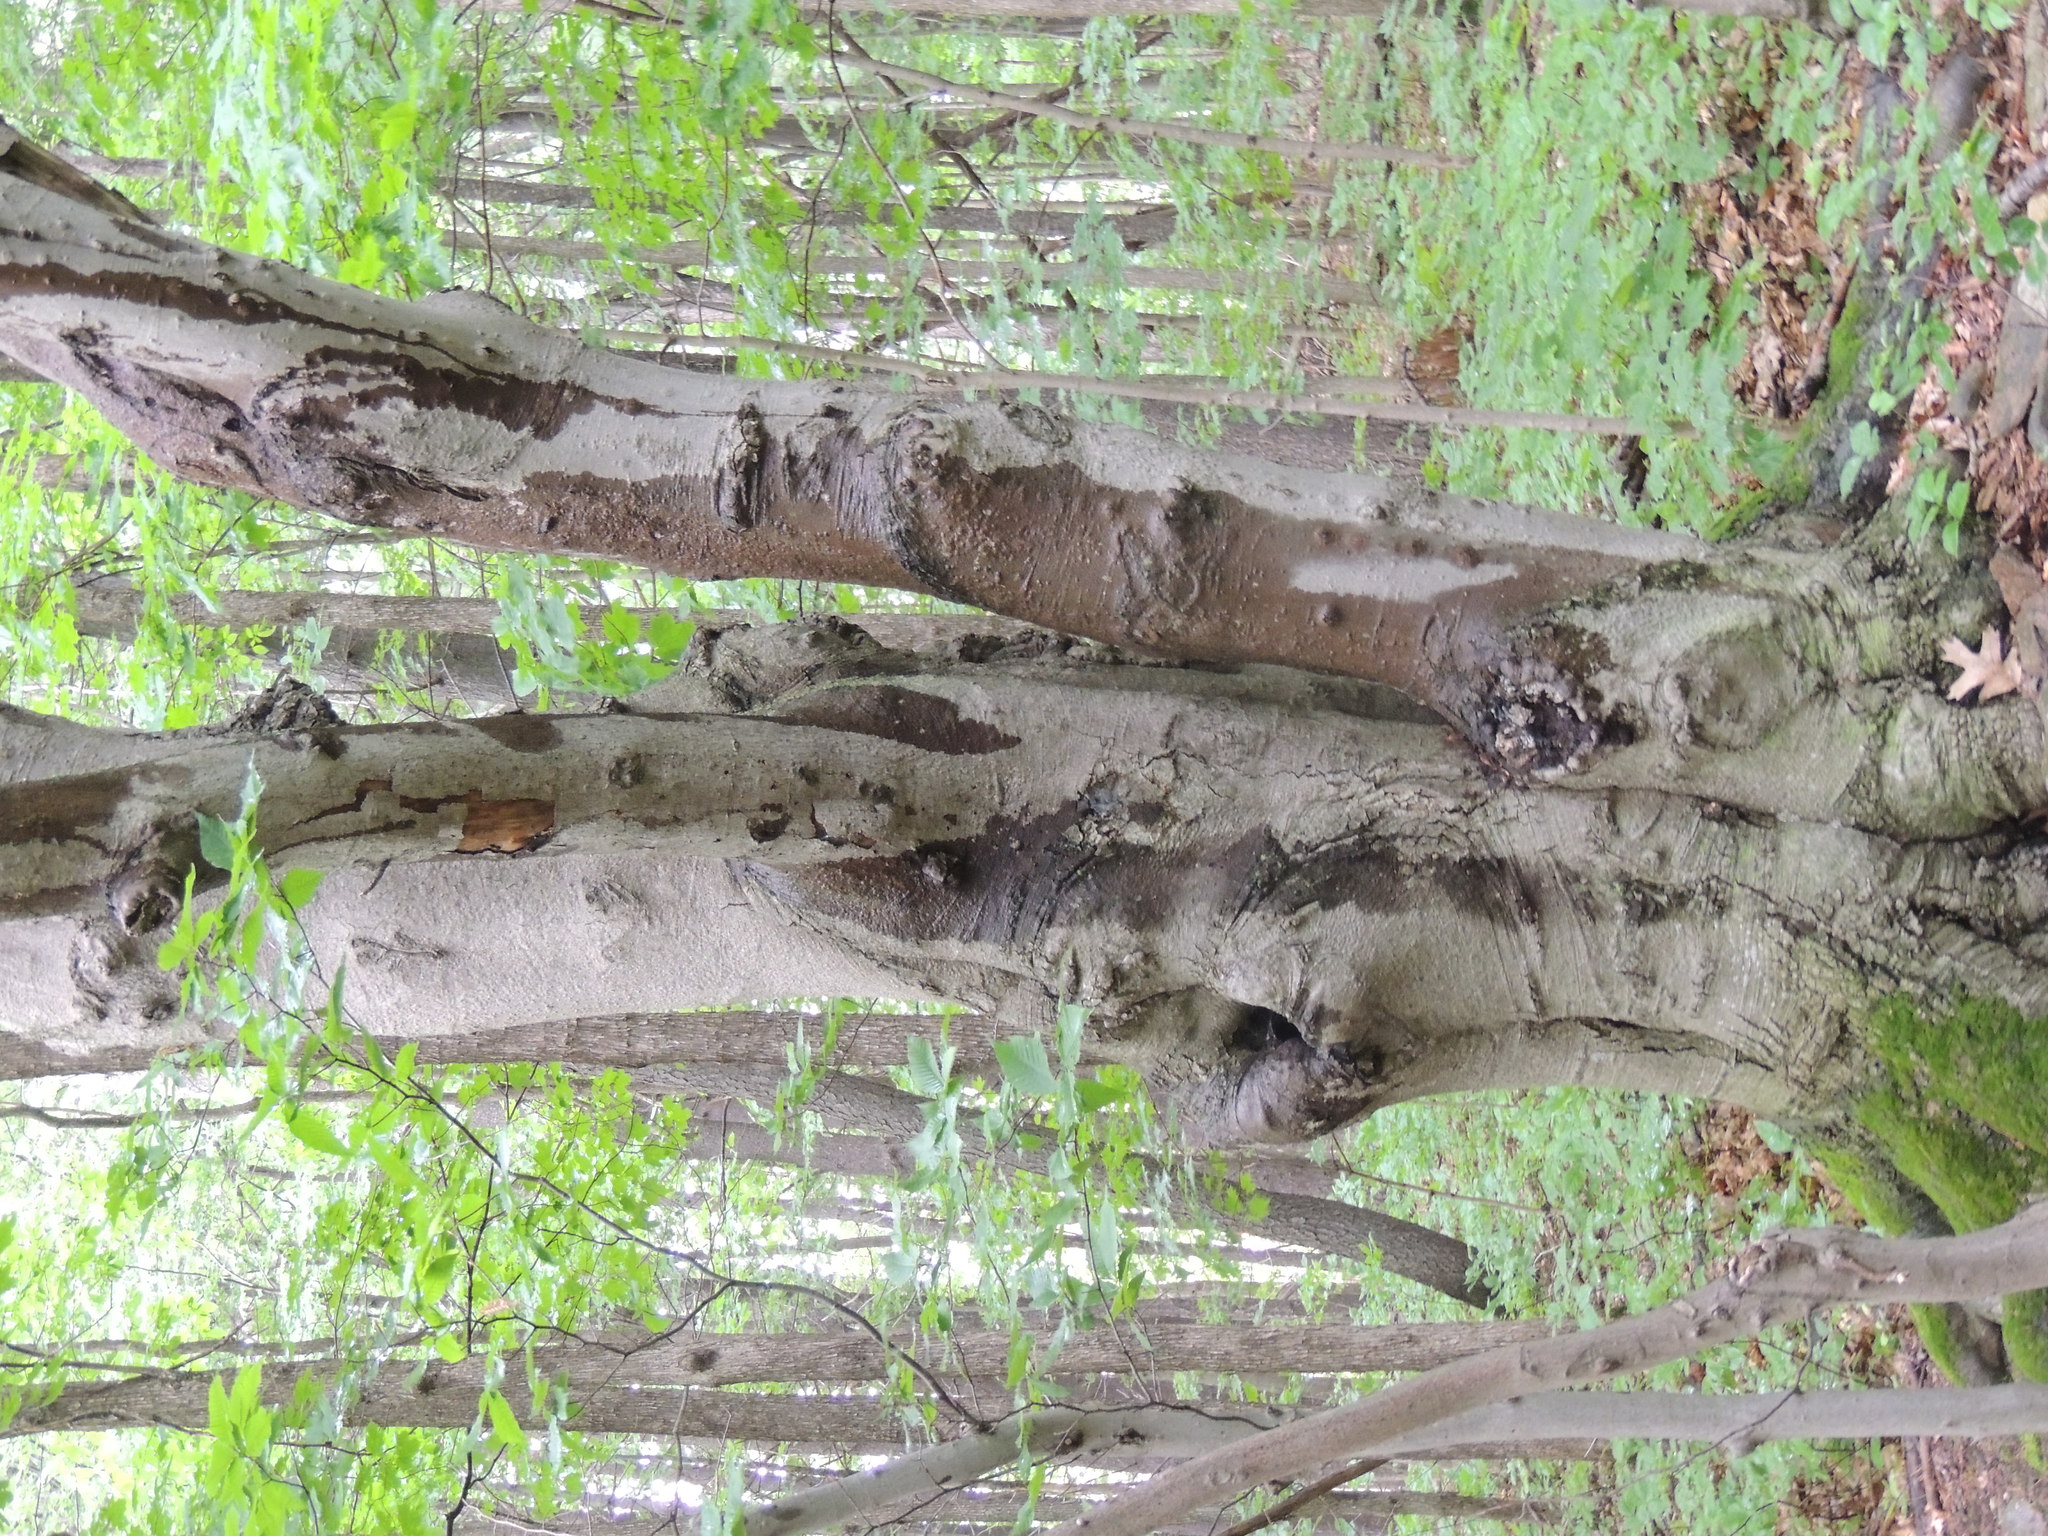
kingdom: Plantae
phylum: Tracheophyta
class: Magnoliopsida
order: Fagales
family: Fagaceae
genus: Fagus
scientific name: Fagus grandifolia
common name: American beech
